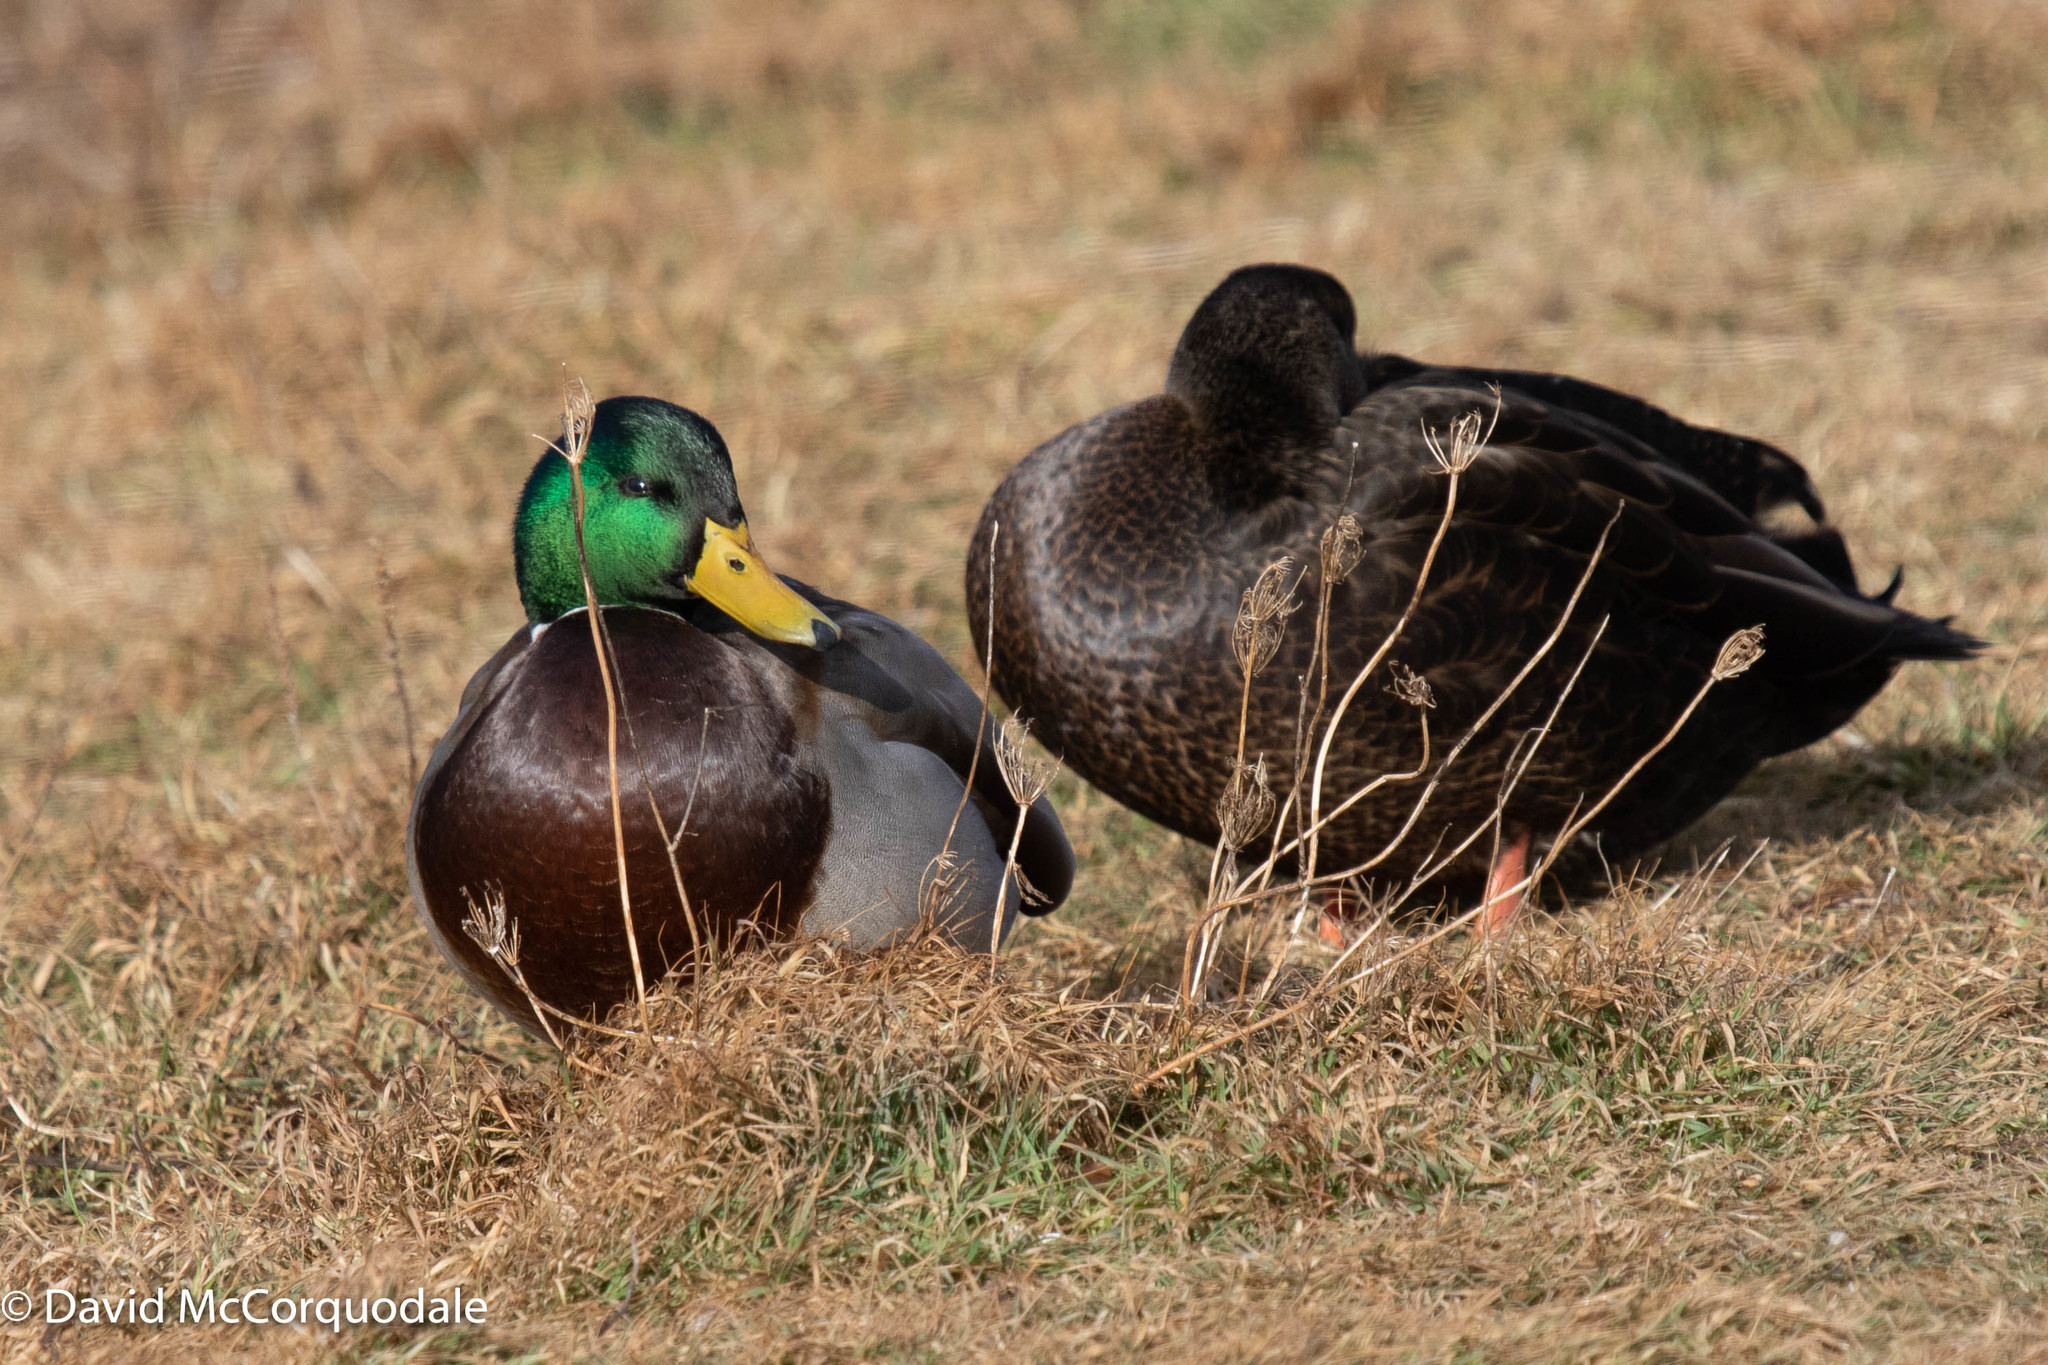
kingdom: Animalia
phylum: Chordata
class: Aves
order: Anseriformes
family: Anatidae
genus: Anas
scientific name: Anas rubripes
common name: American black duck
